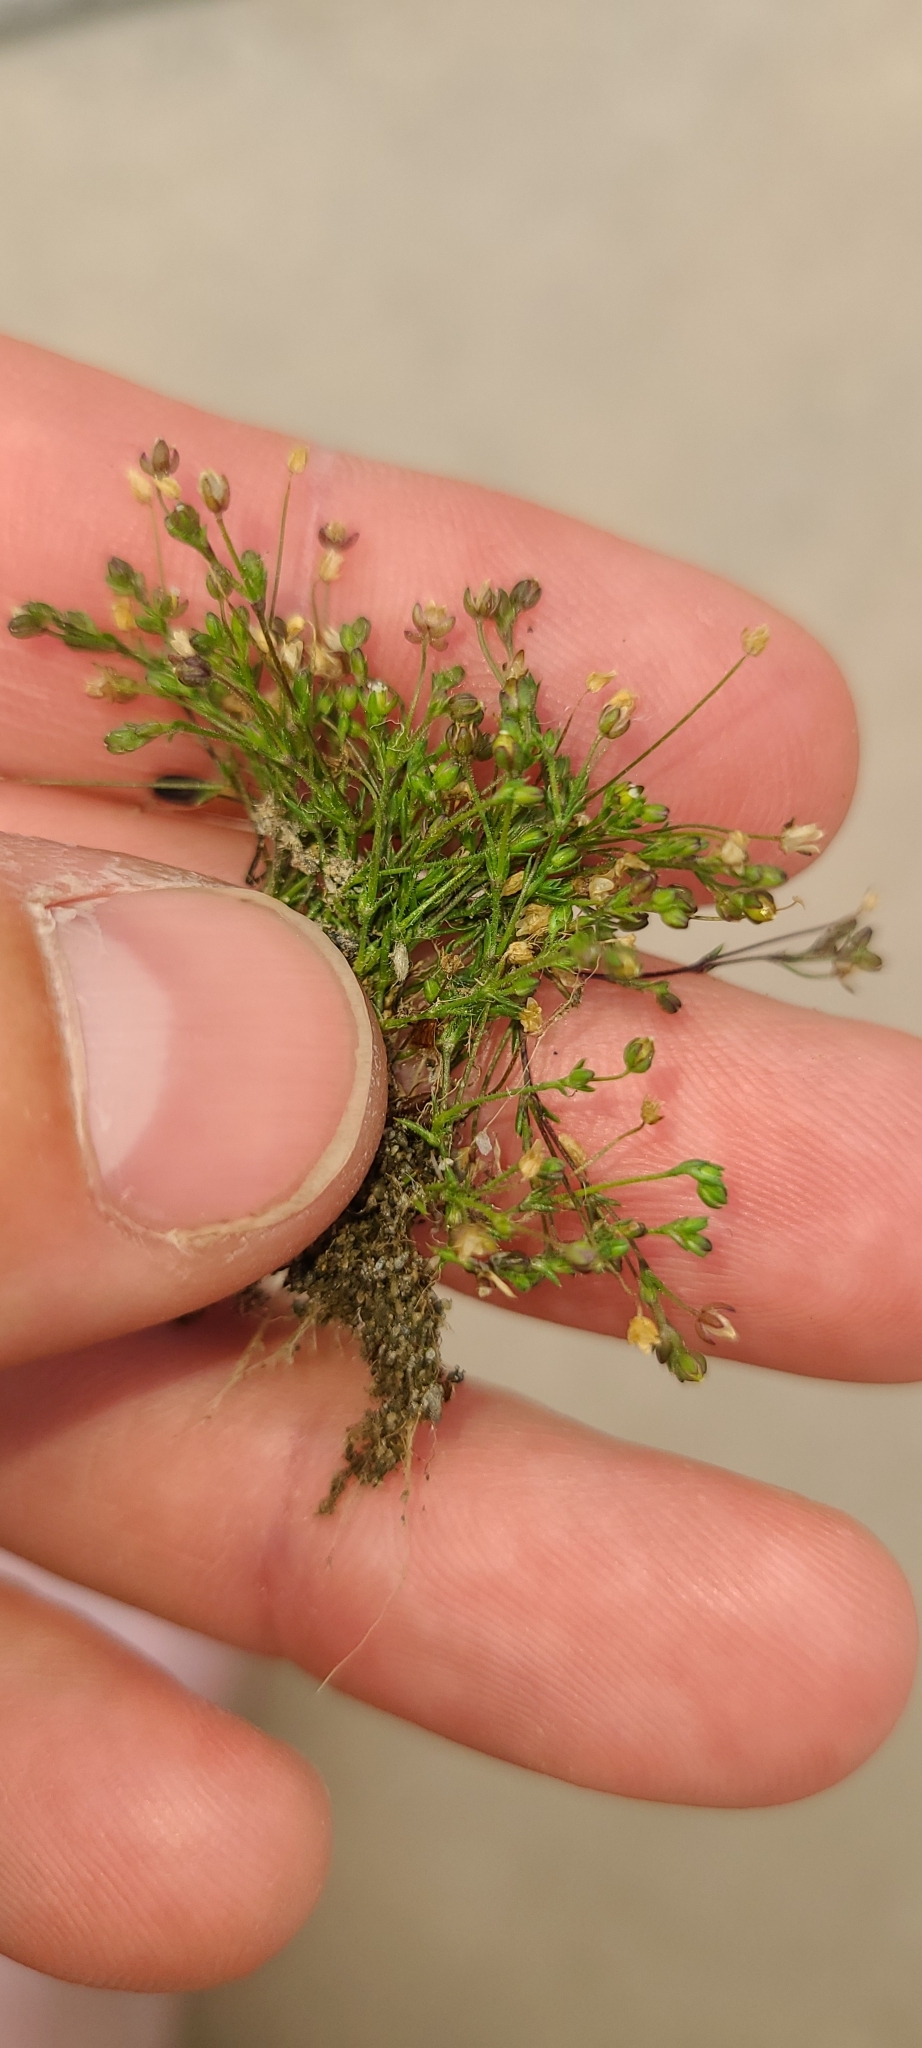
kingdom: Plantae
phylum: Tracheophyta
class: Magnoliopsida
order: Caryophyllales
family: Caryophyllaceae
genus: Sagina
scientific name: Sagina apetala
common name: Annual pearlwort
